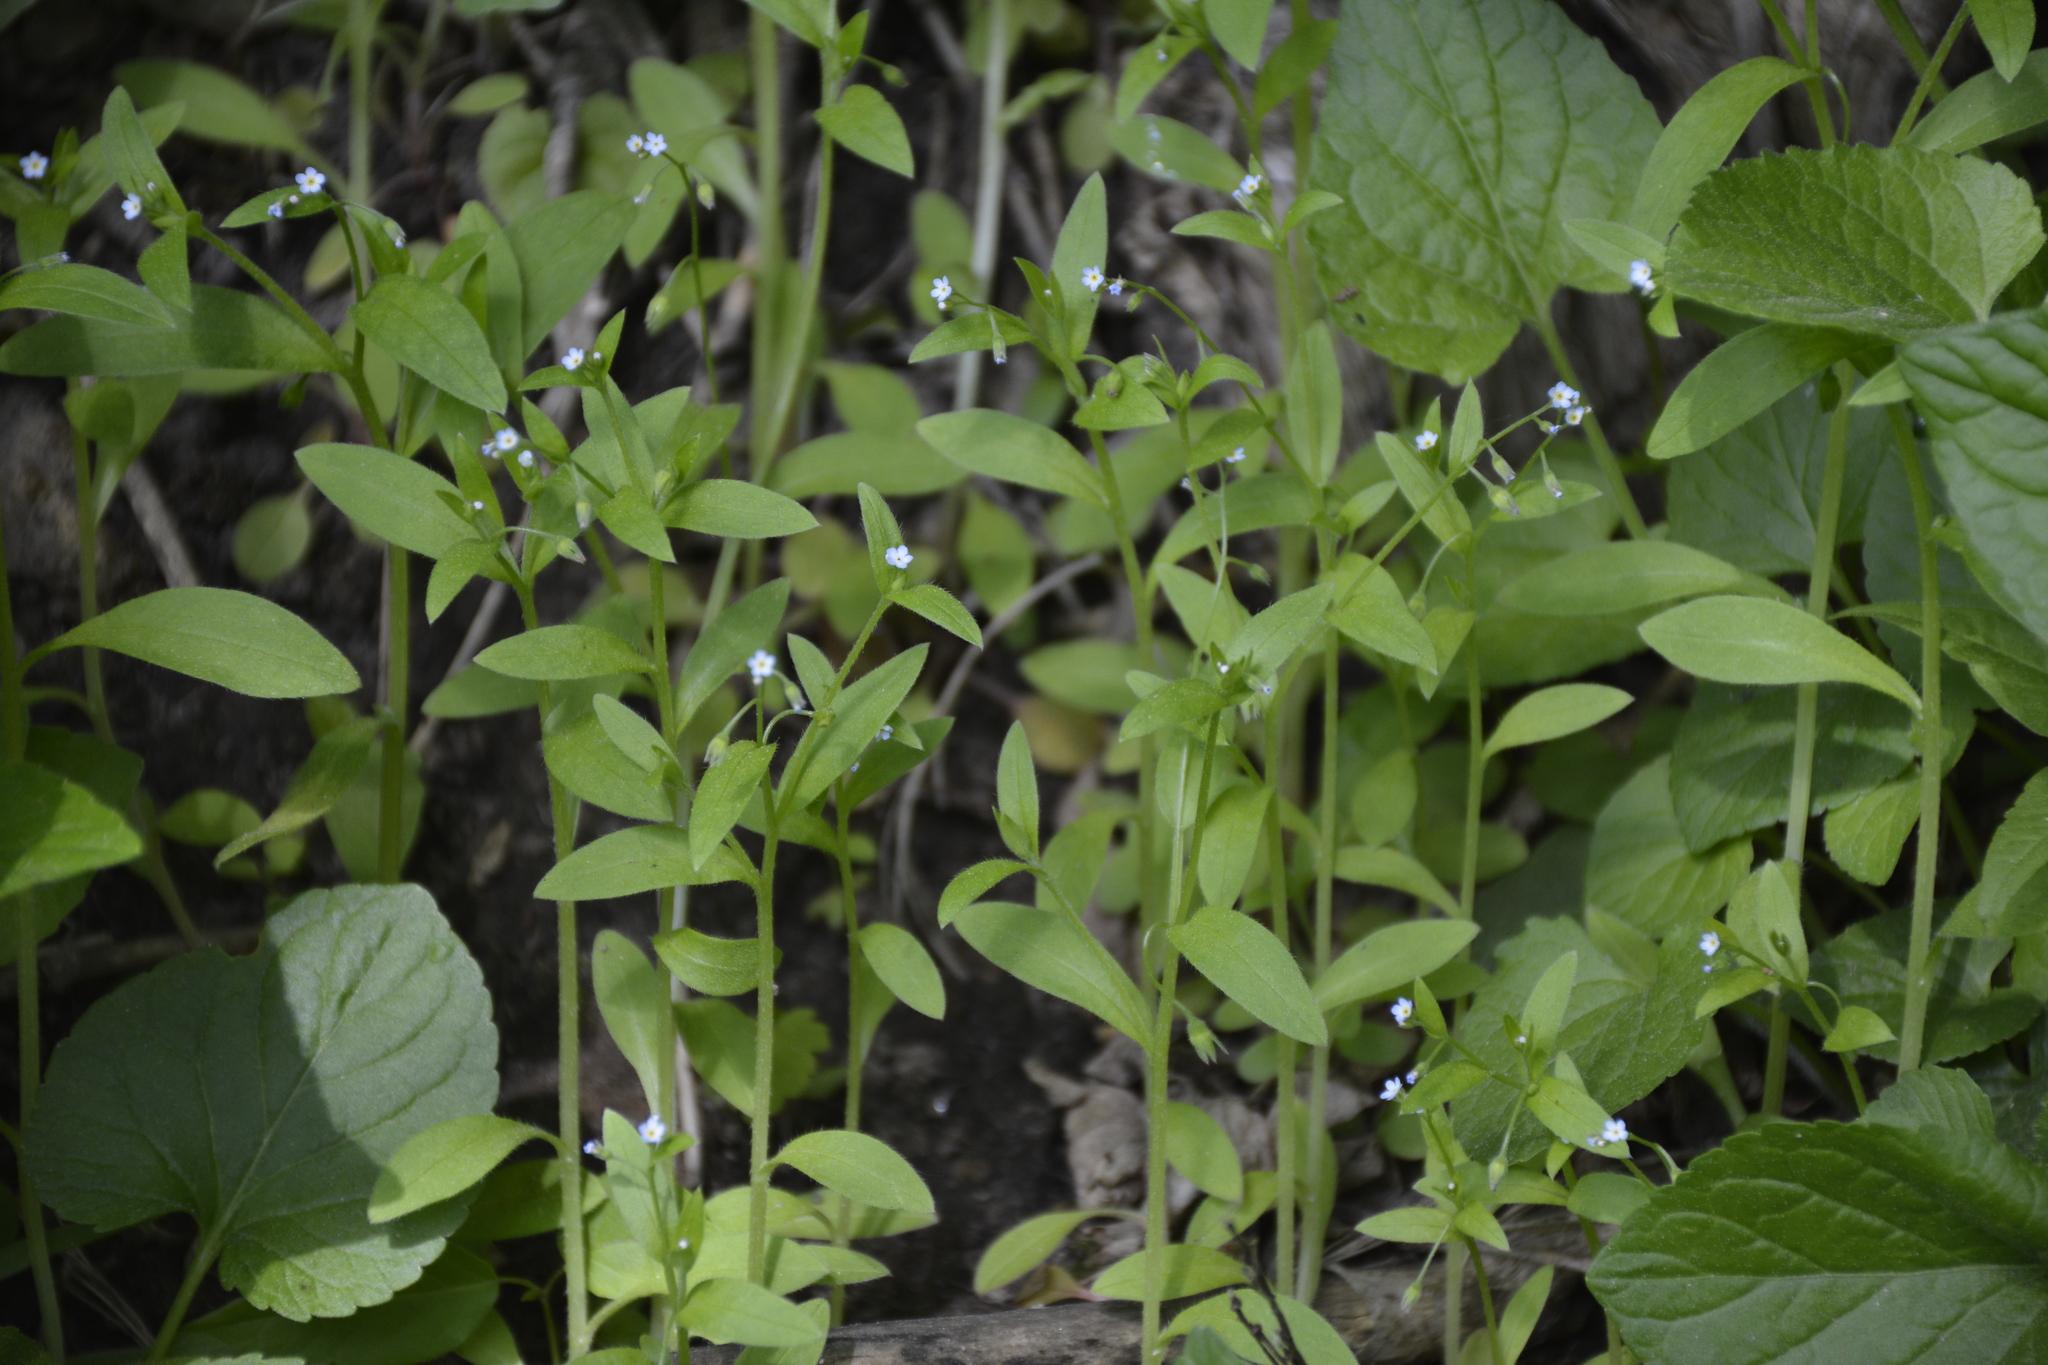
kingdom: Plantae
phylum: Tracheophyta
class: Magnoliopsida
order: Boraginales
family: Boraginaceae
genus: Myosotis
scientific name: Myosotis sparsiflora
